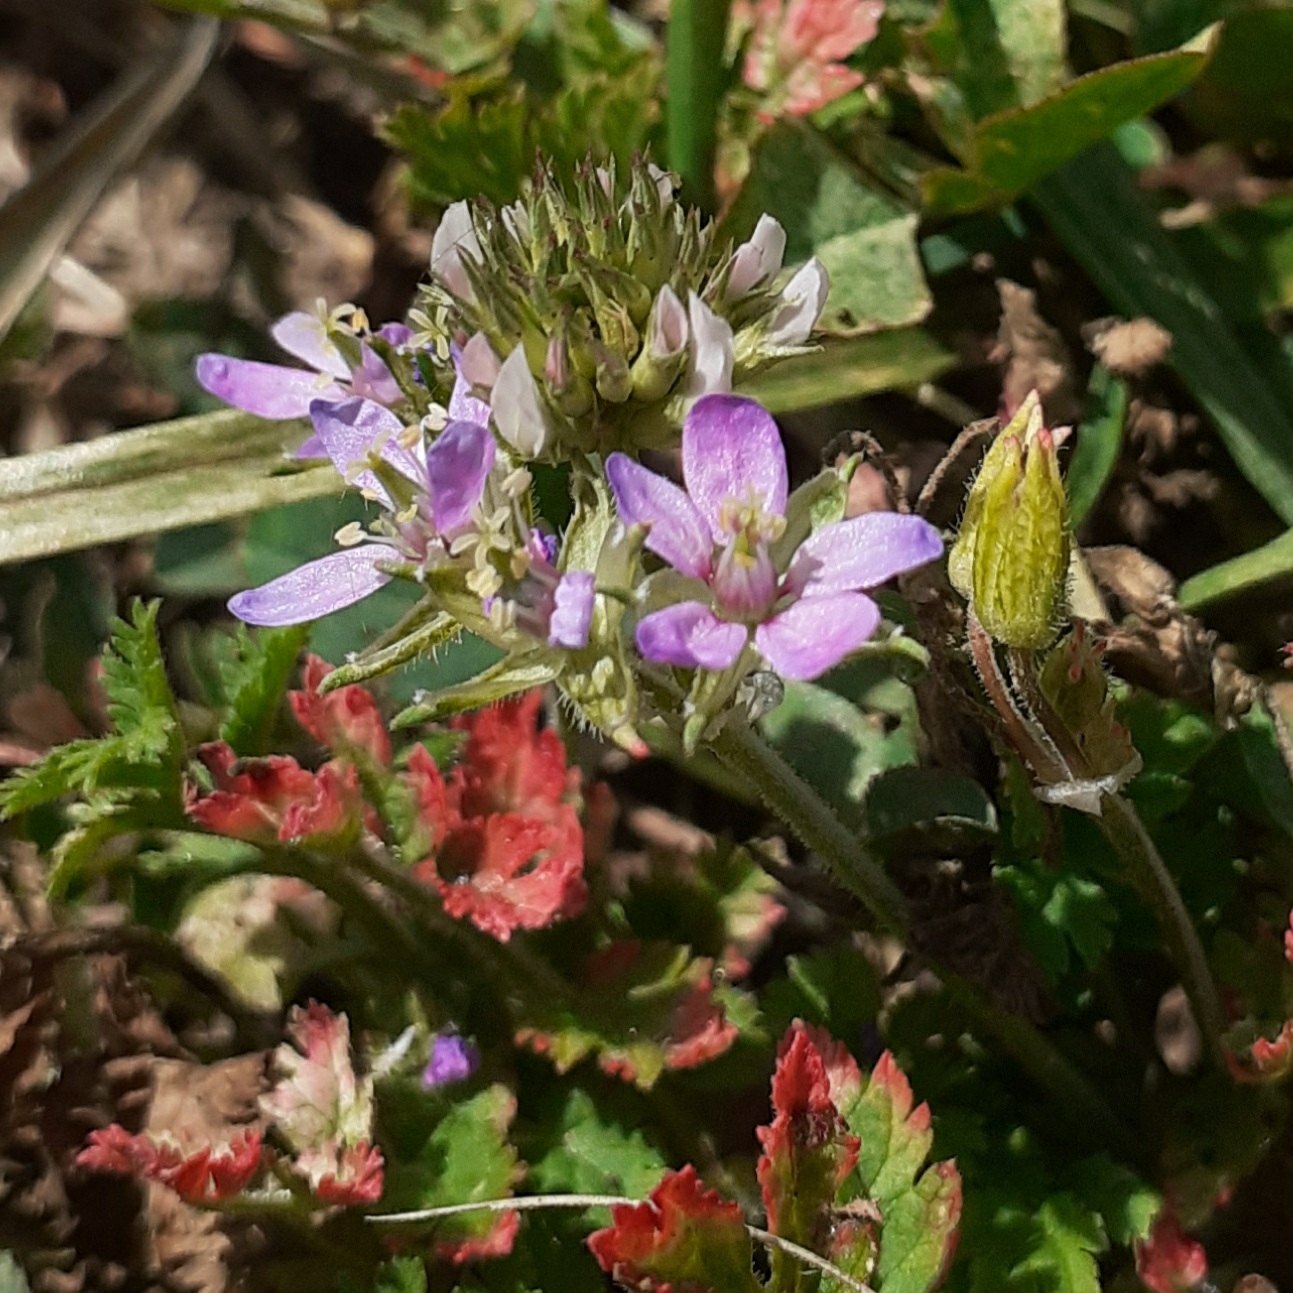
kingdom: Plantae
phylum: Tracheophyta
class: Magnoliopsida
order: Geraniales
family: Geraniaceae
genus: Erodium
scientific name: Erodium moschatum
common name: Musk stork's-bill
